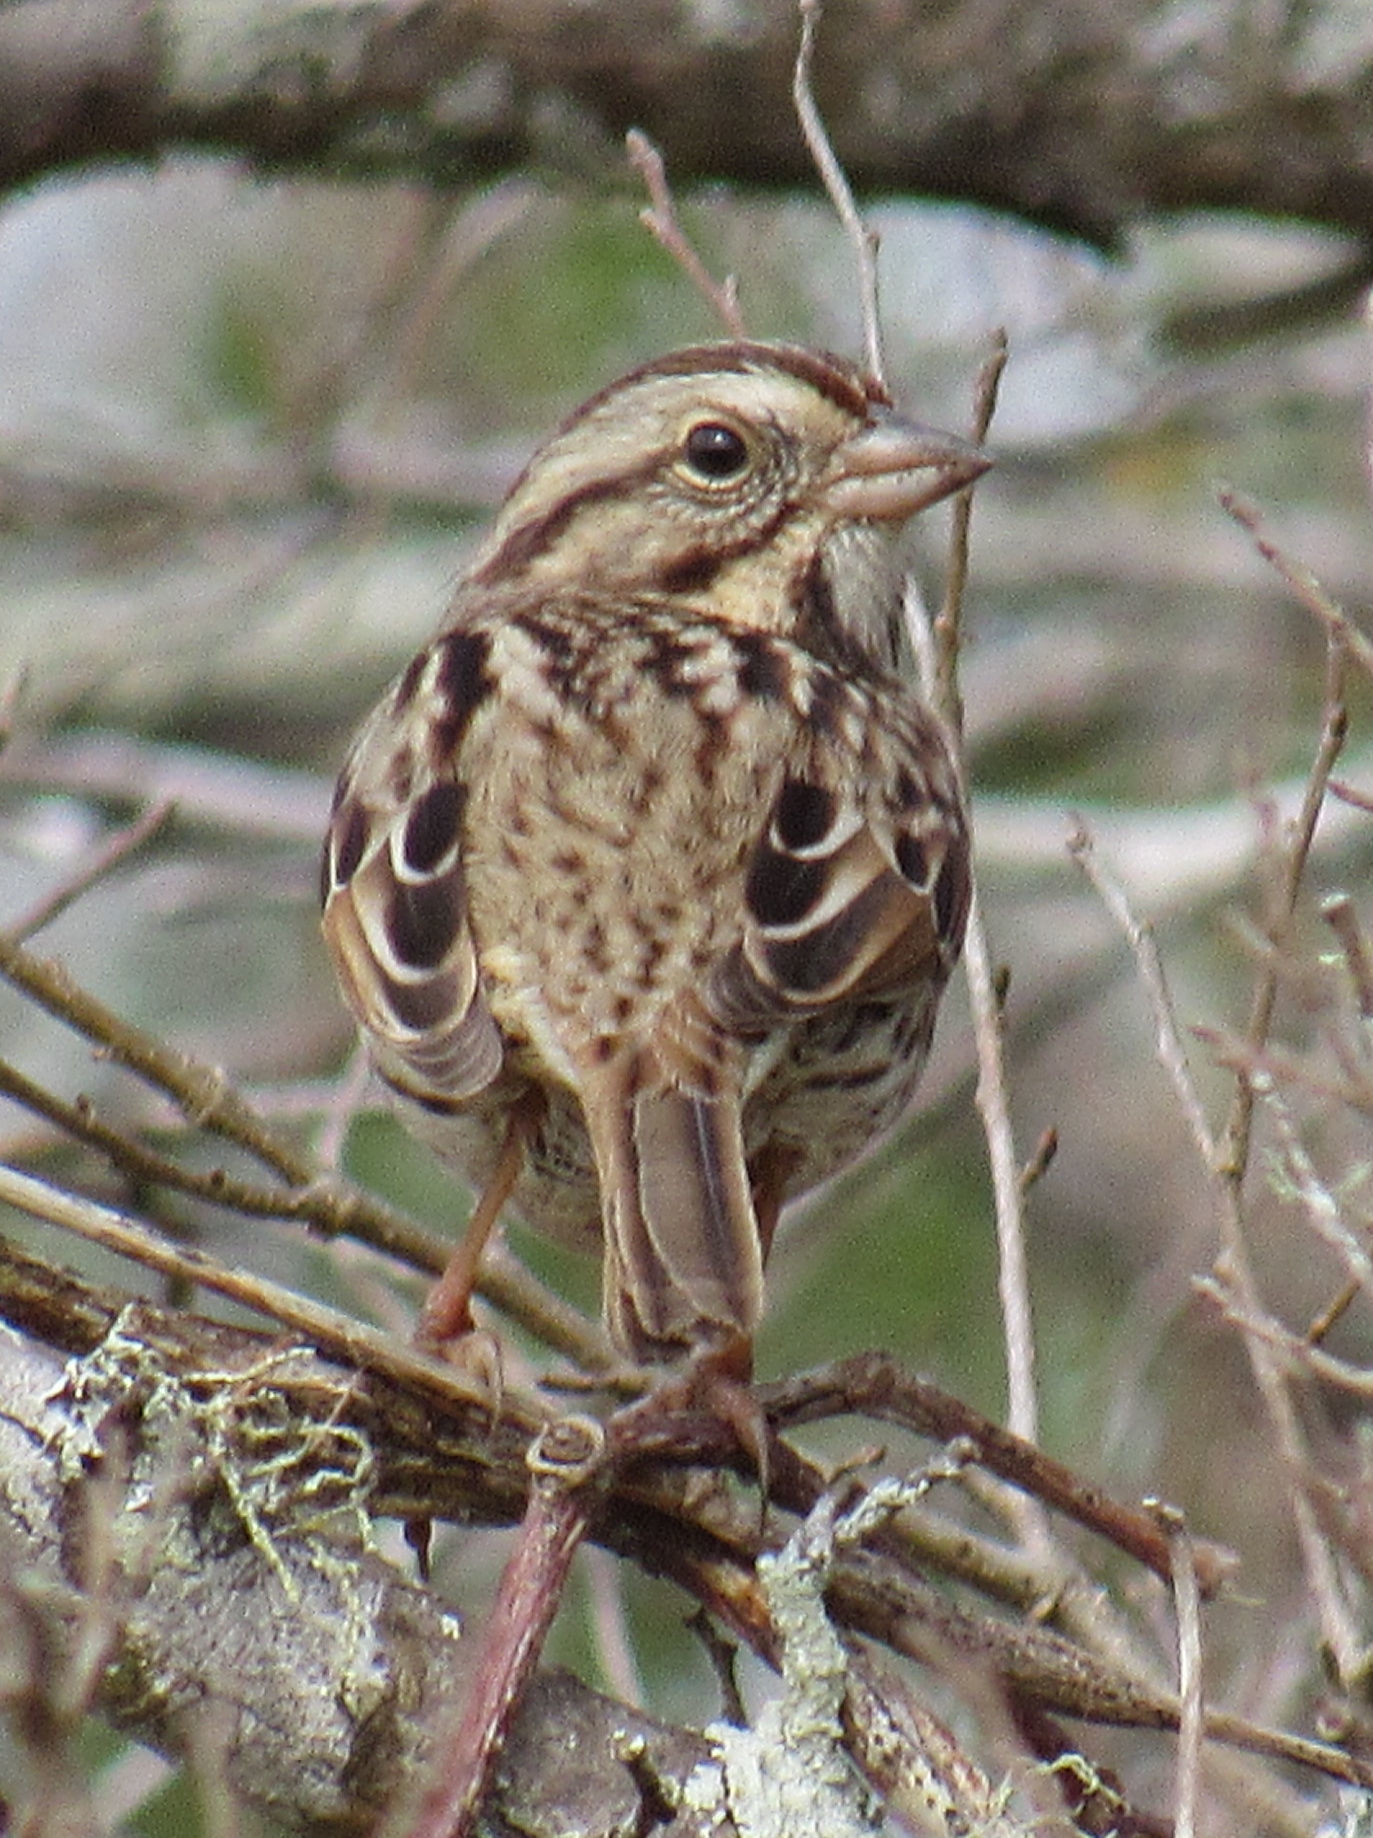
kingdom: Animalia
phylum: Chordata
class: Aves
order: Passeriformes
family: Passerellidae
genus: Melospiza
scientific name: Melospiza melodia
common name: Song sparrow
